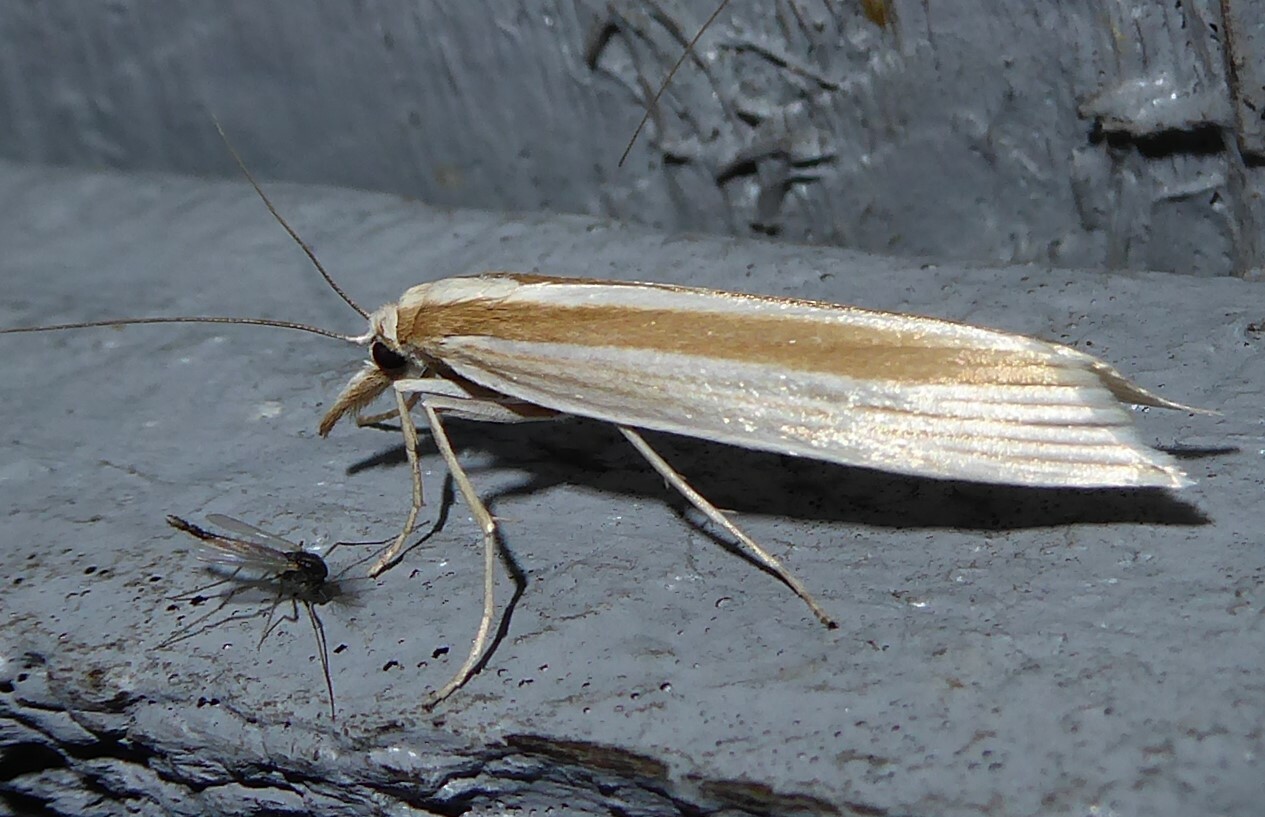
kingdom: Animalia
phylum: Arthropoda
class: Insecta
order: Lepidoptera
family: Crambidae
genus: Orocrambus
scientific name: Orocrambus angustipennis
